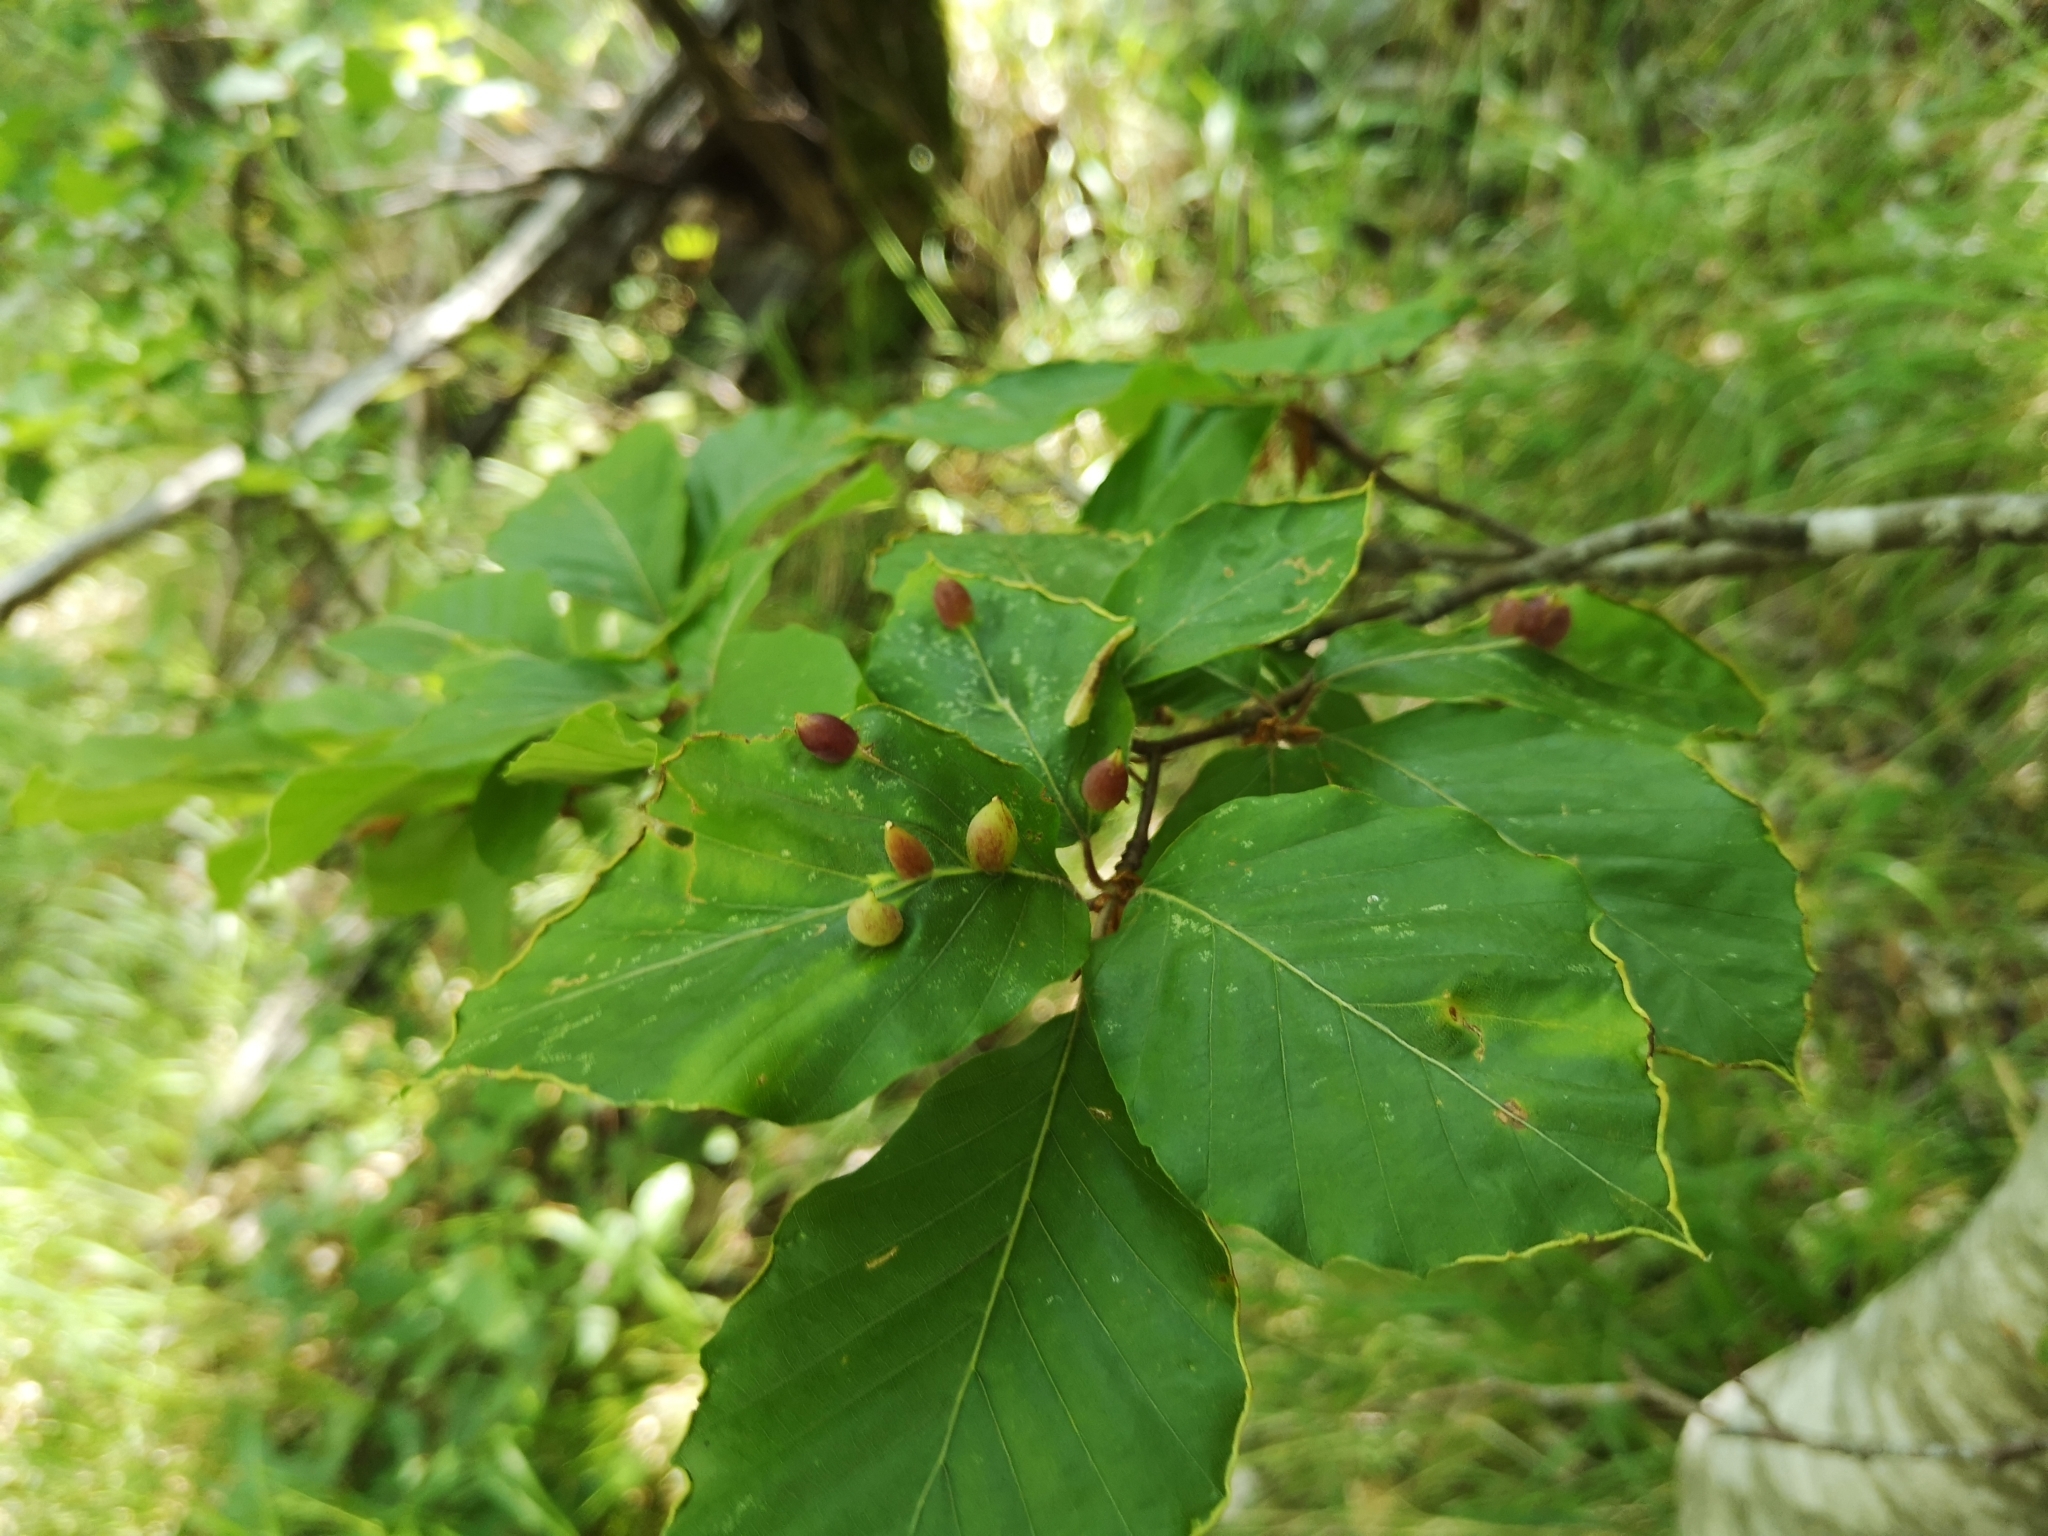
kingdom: Animalia
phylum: Arthropoda
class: Insecta
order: Diptera
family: Cecidomyiidae
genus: Mikiola
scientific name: Mikiola fagi
